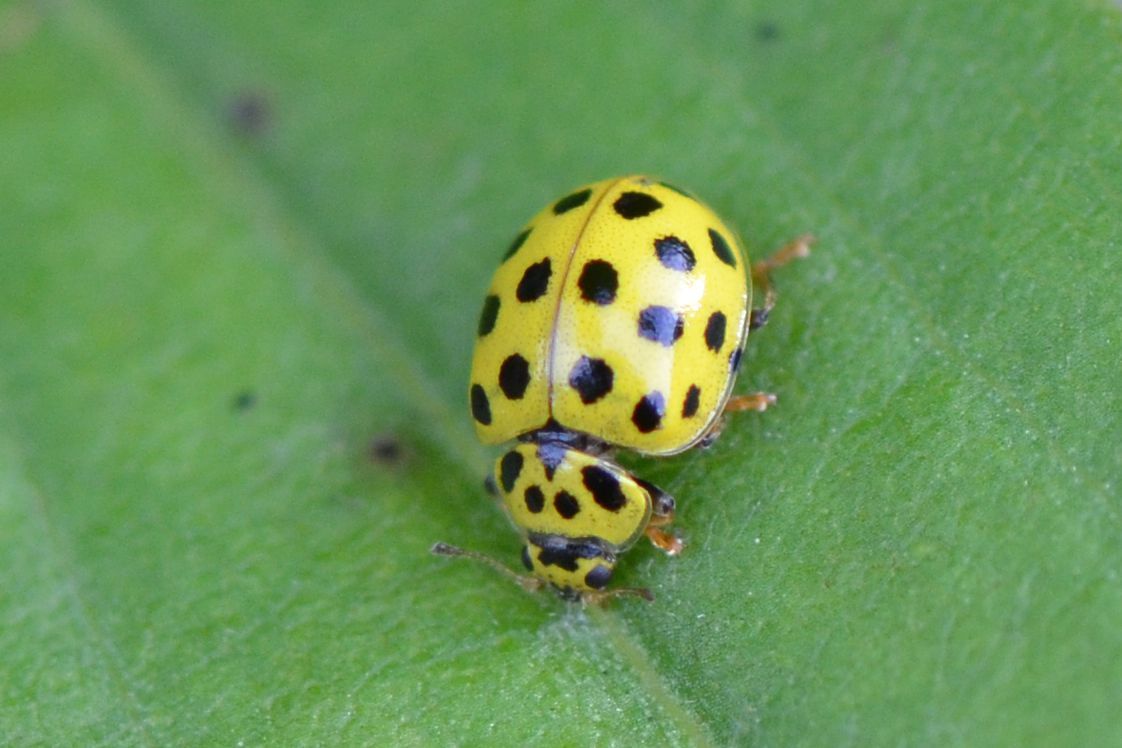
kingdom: Animalia
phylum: Arthropoda
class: Insecta
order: Coleoptera
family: Coccinellidae
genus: Psyllobora
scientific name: Psyllobora vigintiduopunctata
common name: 22-spot ladybird
